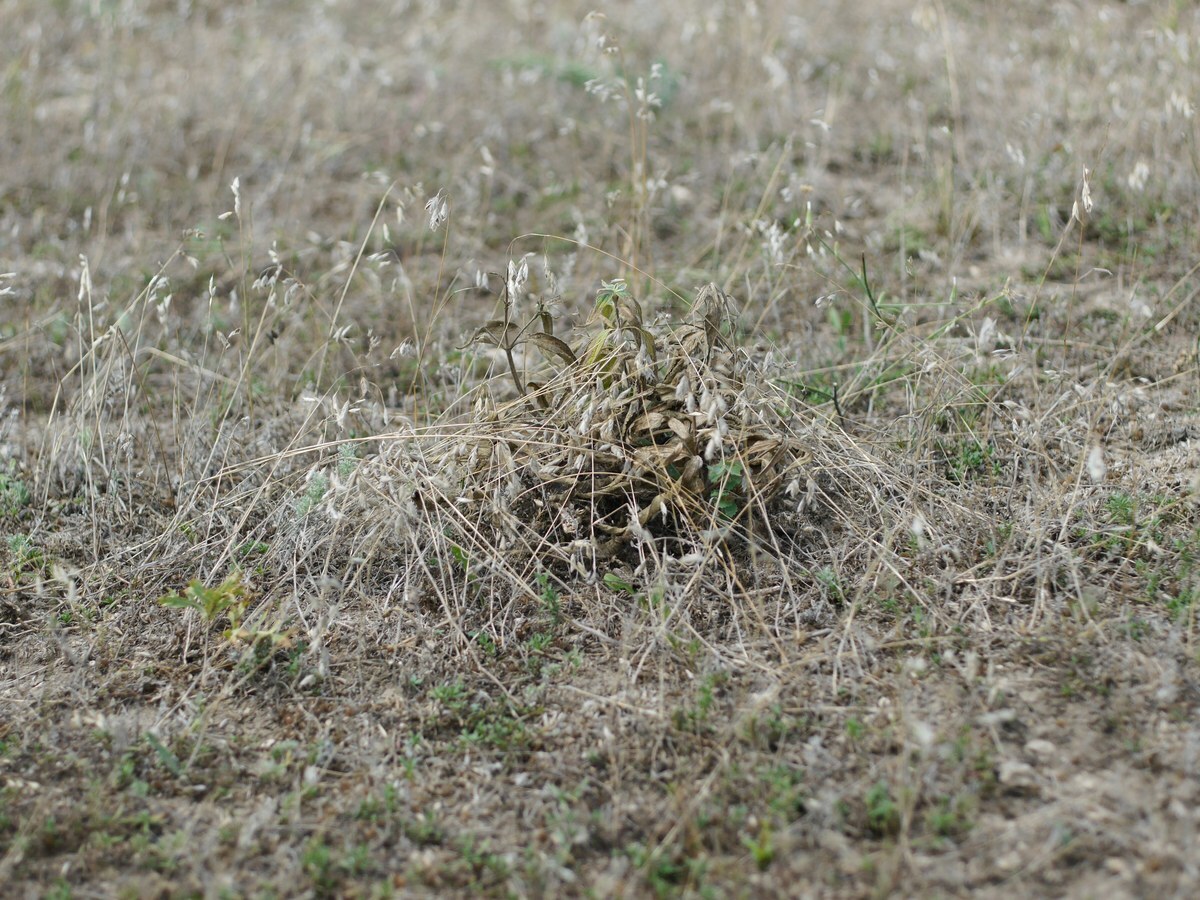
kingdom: Animalia
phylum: Arthropoda
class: Arachnida
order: Araneae
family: Theridiidae
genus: Latrodectus
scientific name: Latrodectus tredecimguttatus
